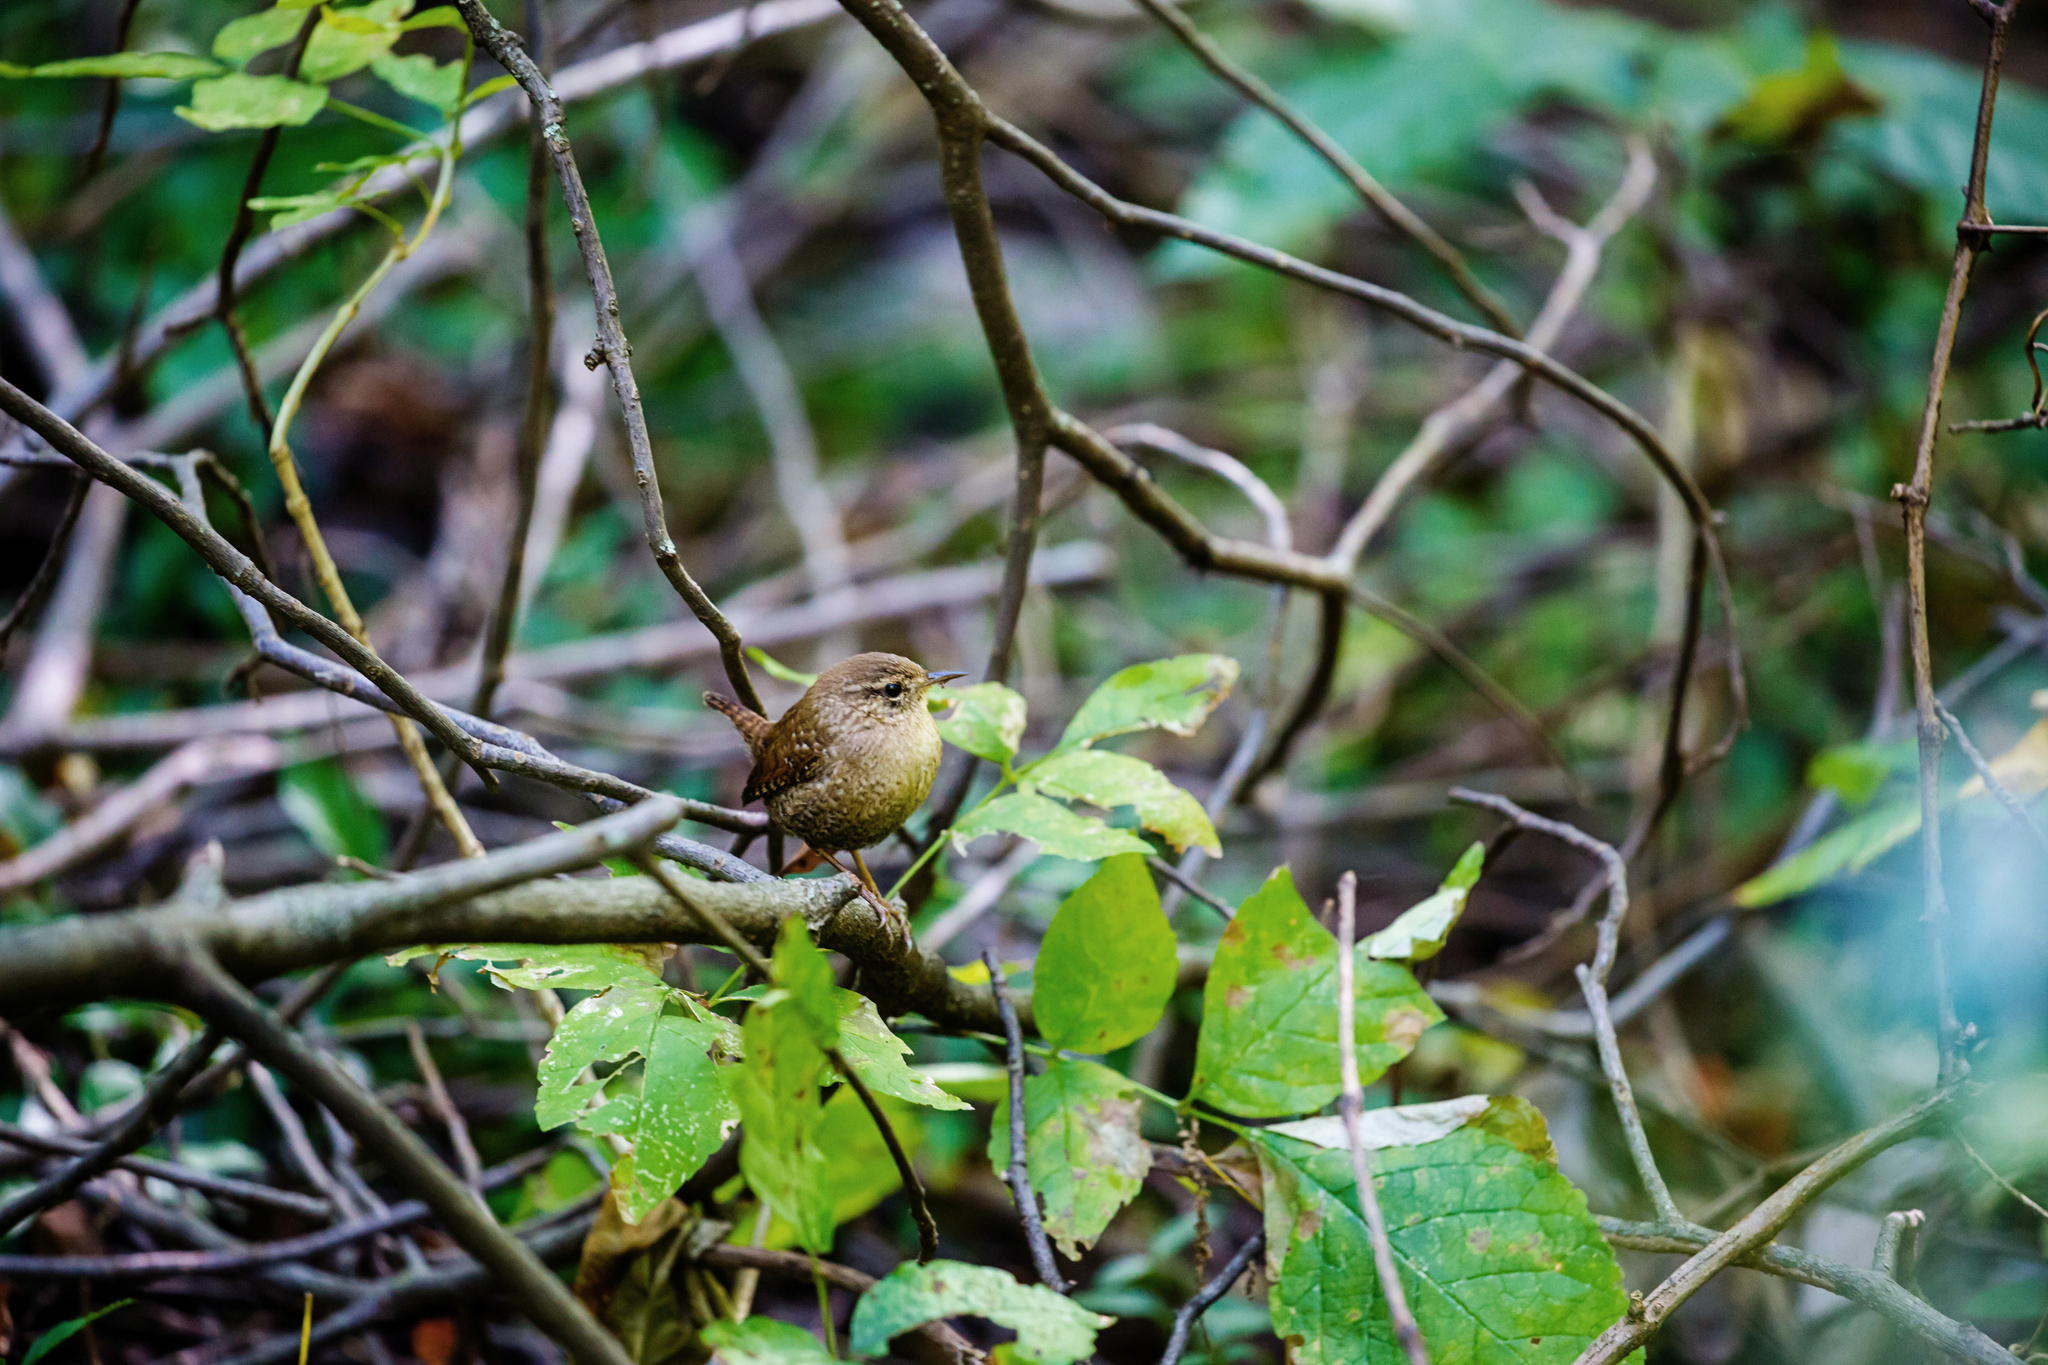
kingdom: Animalia
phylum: Chordata
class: Aves
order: Passeriformes
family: Troglodytidae
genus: Troglodytes
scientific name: Troglodytes hiemalis
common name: Winter wren
